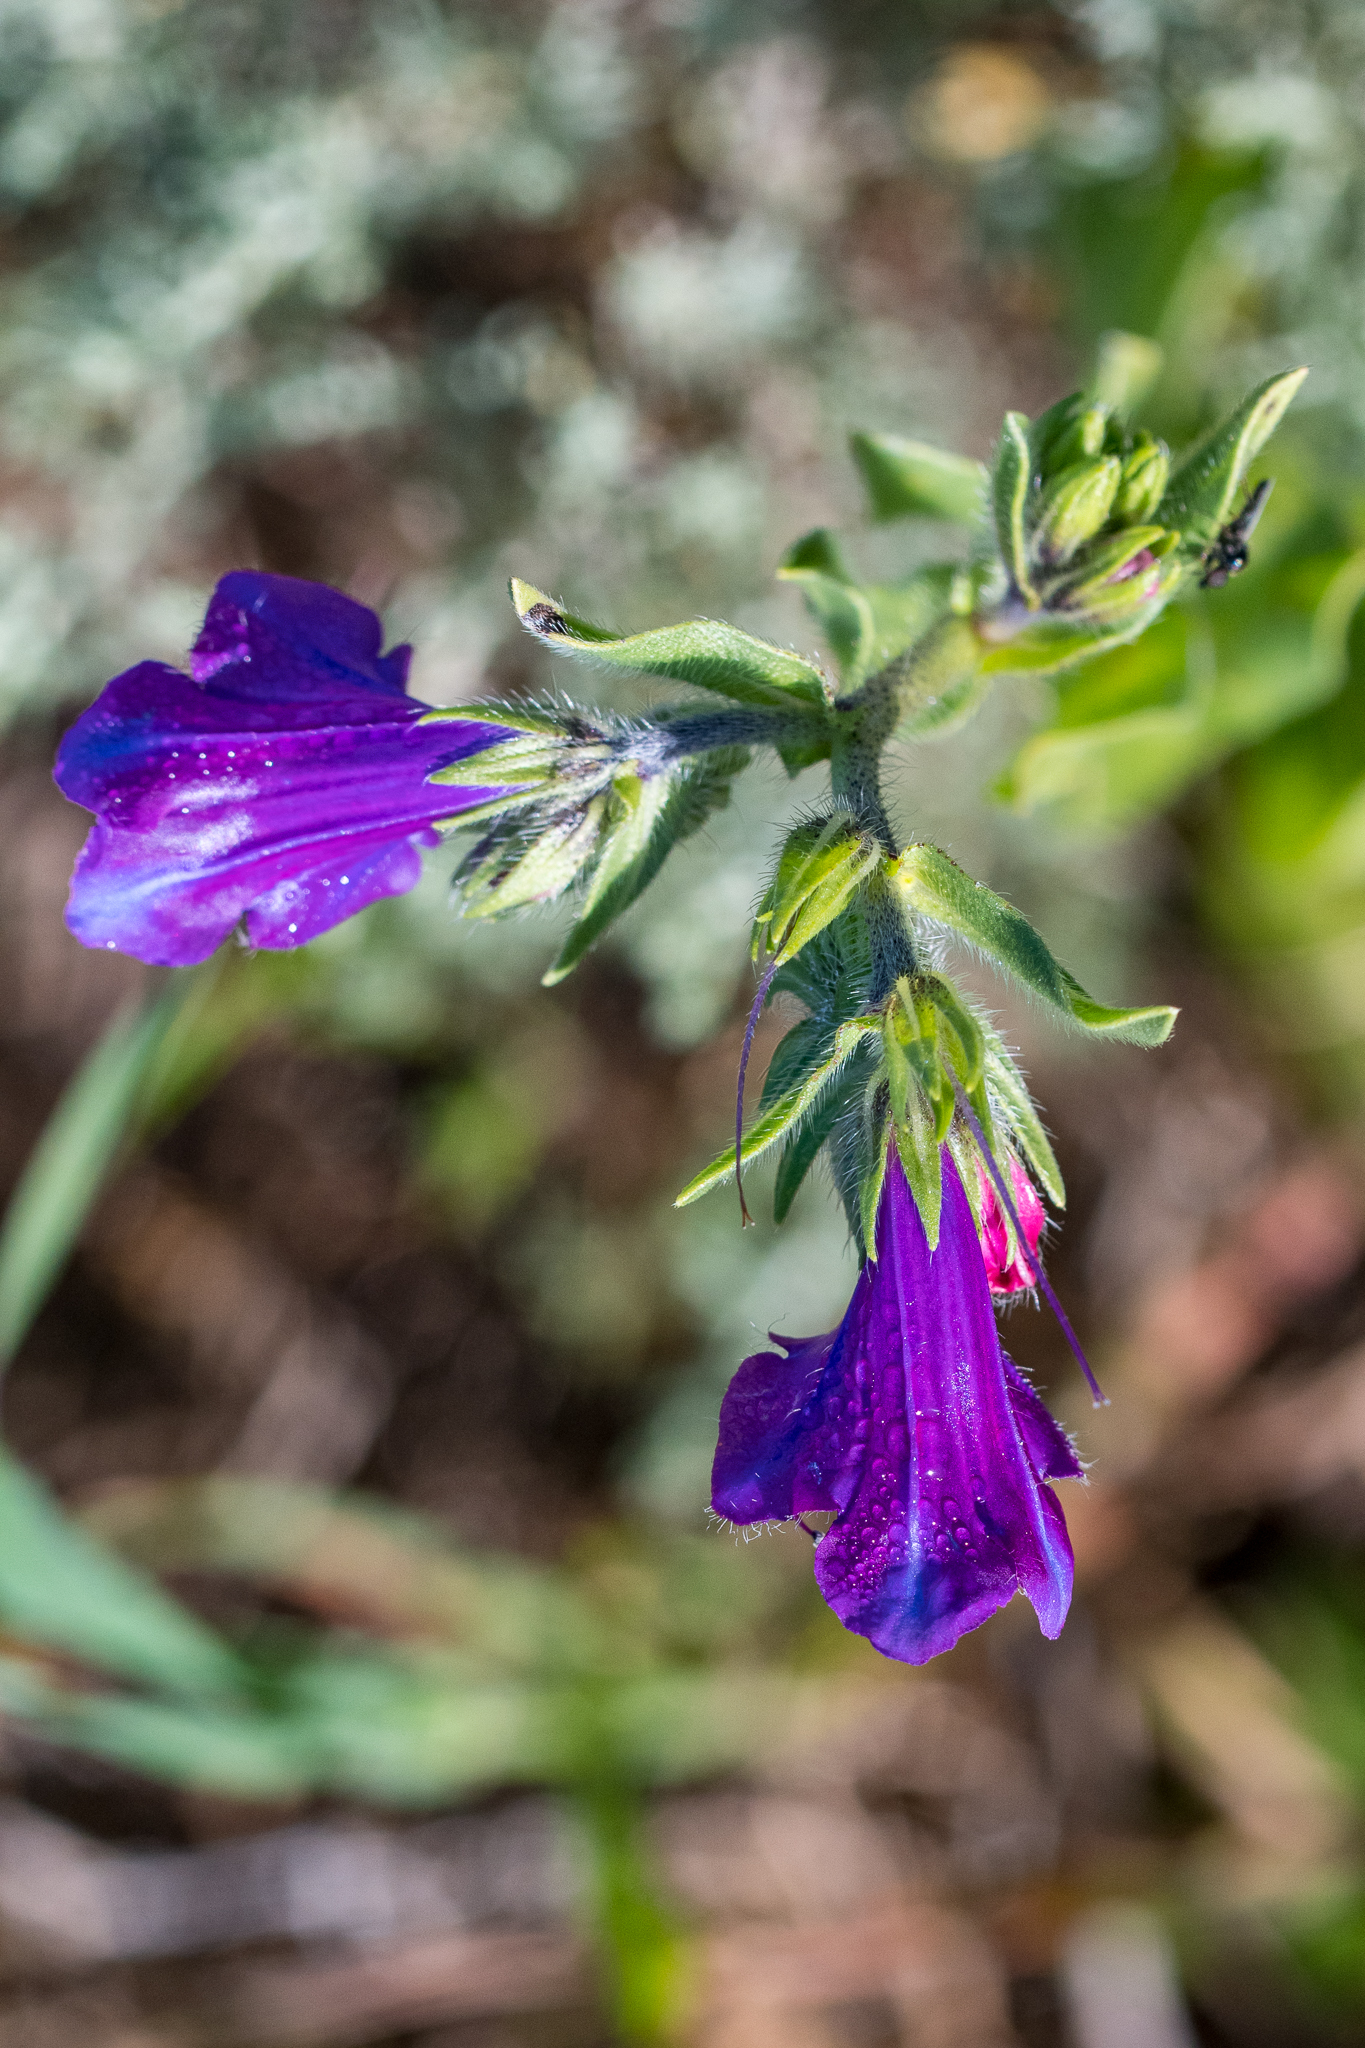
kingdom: Plantae
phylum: Tracheophyta
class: Magnoliopsida
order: Boraginales
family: Boraginaceae
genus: Echium
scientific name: Echium plantagineum
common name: Purple viper's-bugloss
